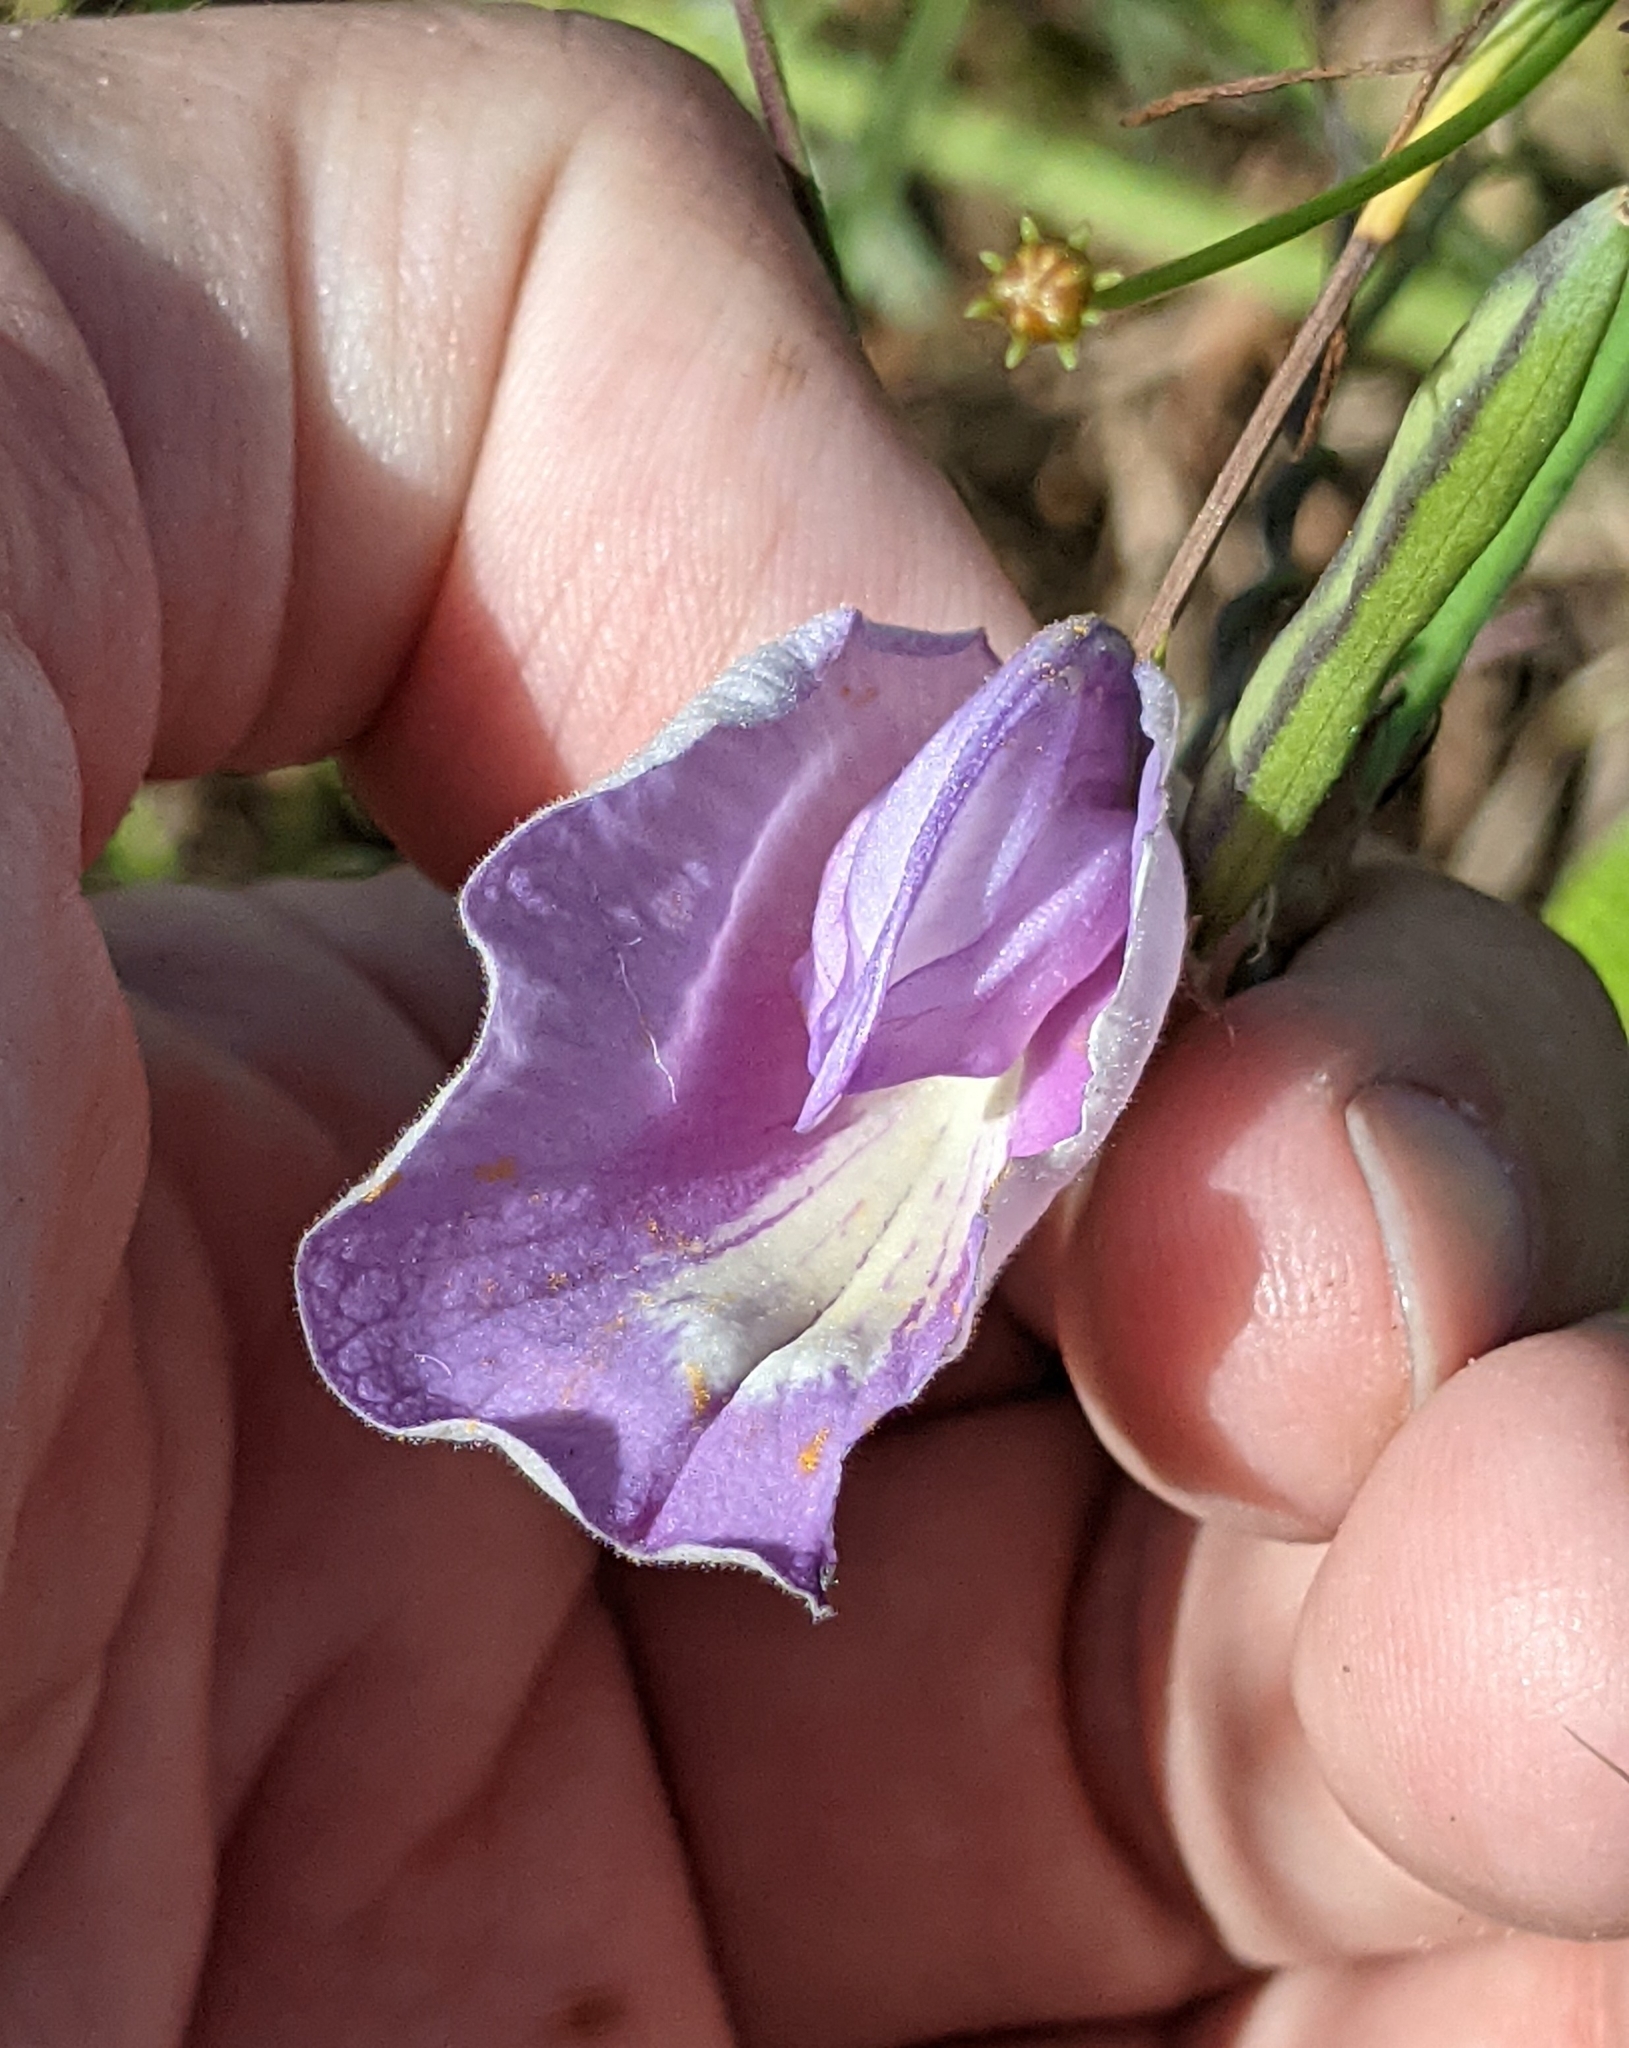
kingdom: Plantae
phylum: Tracheophyta
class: Magnoliopsida
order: Fabales
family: Fabaceae
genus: Centrosema
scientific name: Centrosema virginianum
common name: Butterfly-pea
